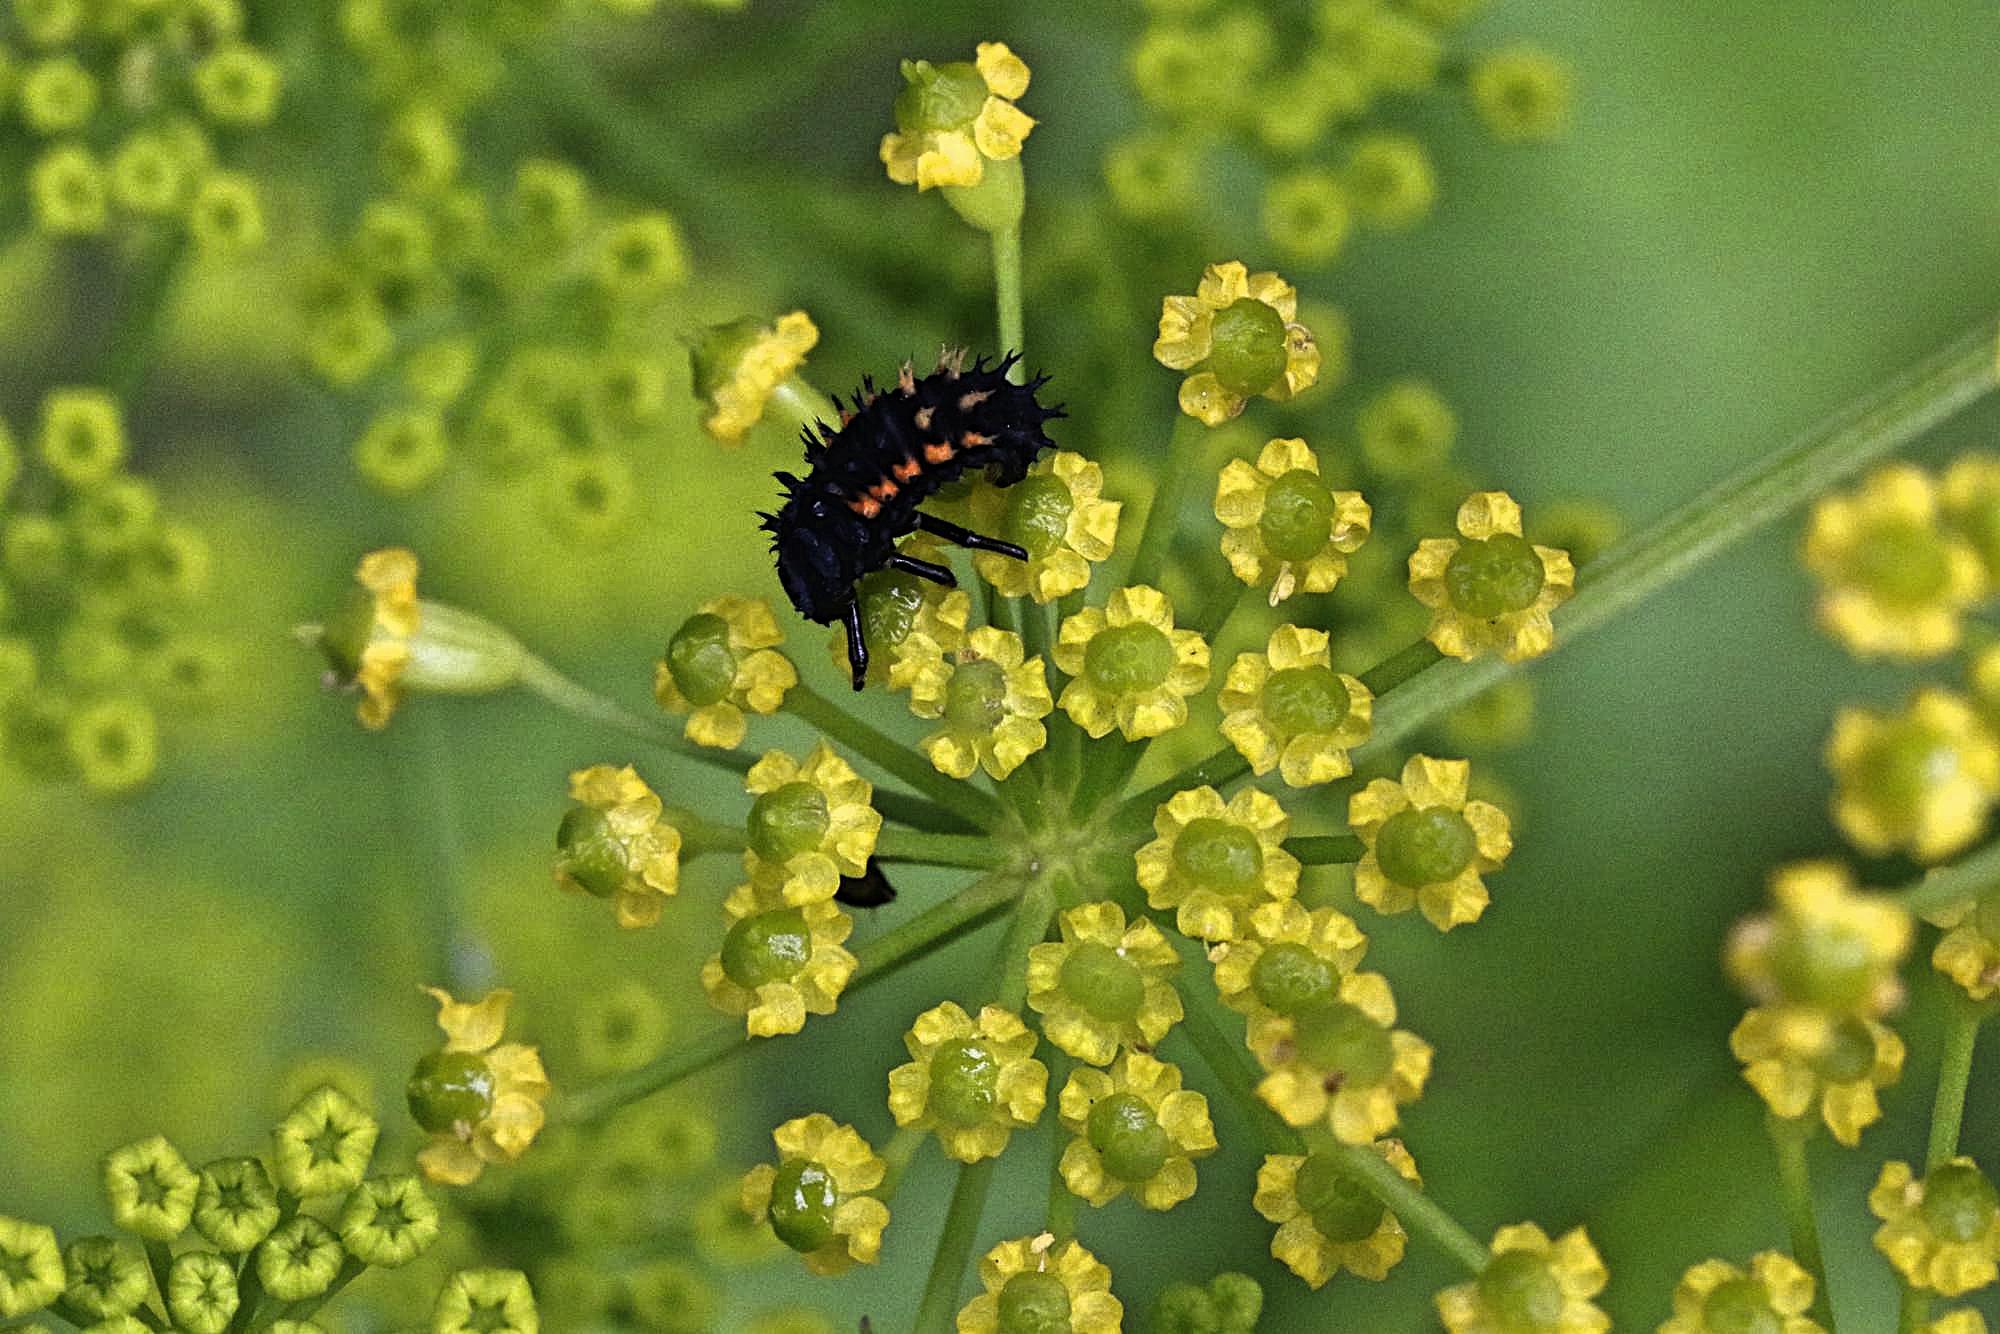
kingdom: Animalia
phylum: Arthropoda
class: Insecta
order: Coleoptera
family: Coccinellidae
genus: Harmonia
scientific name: Harmonia axyridis
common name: Harlequin ladybird
